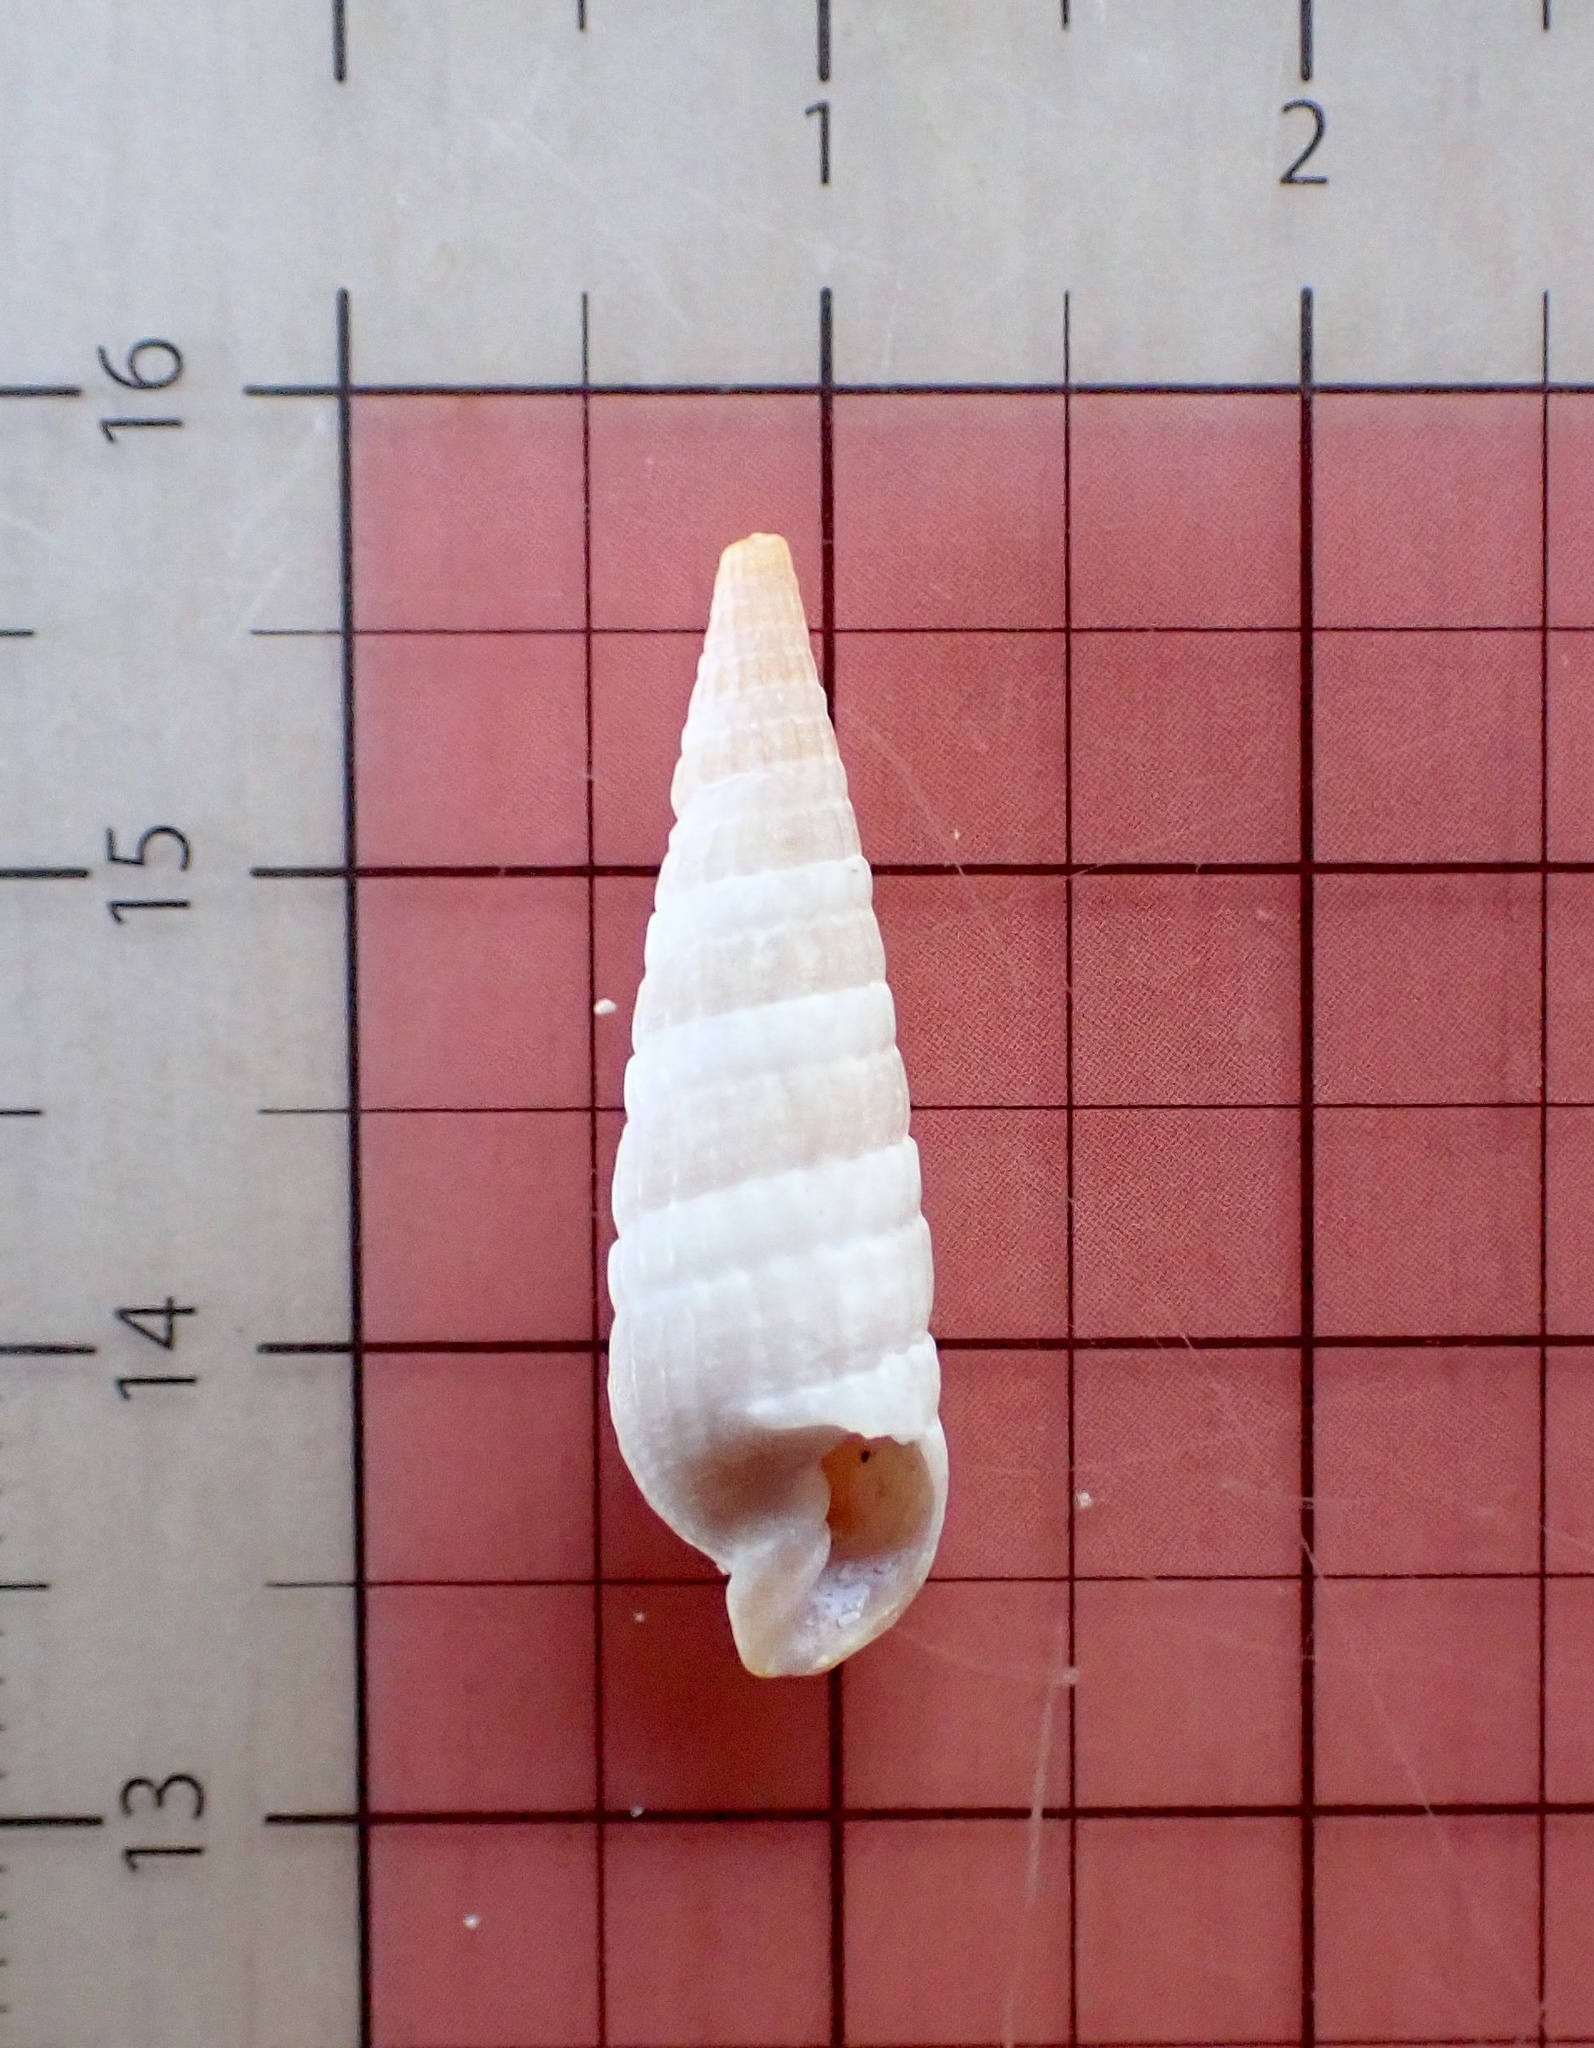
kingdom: Animalia
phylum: Mollusca
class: Gastropoda
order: Neogastropoda
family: Terebridae
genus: Neoterebra
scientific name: Neoterebra dislocata
